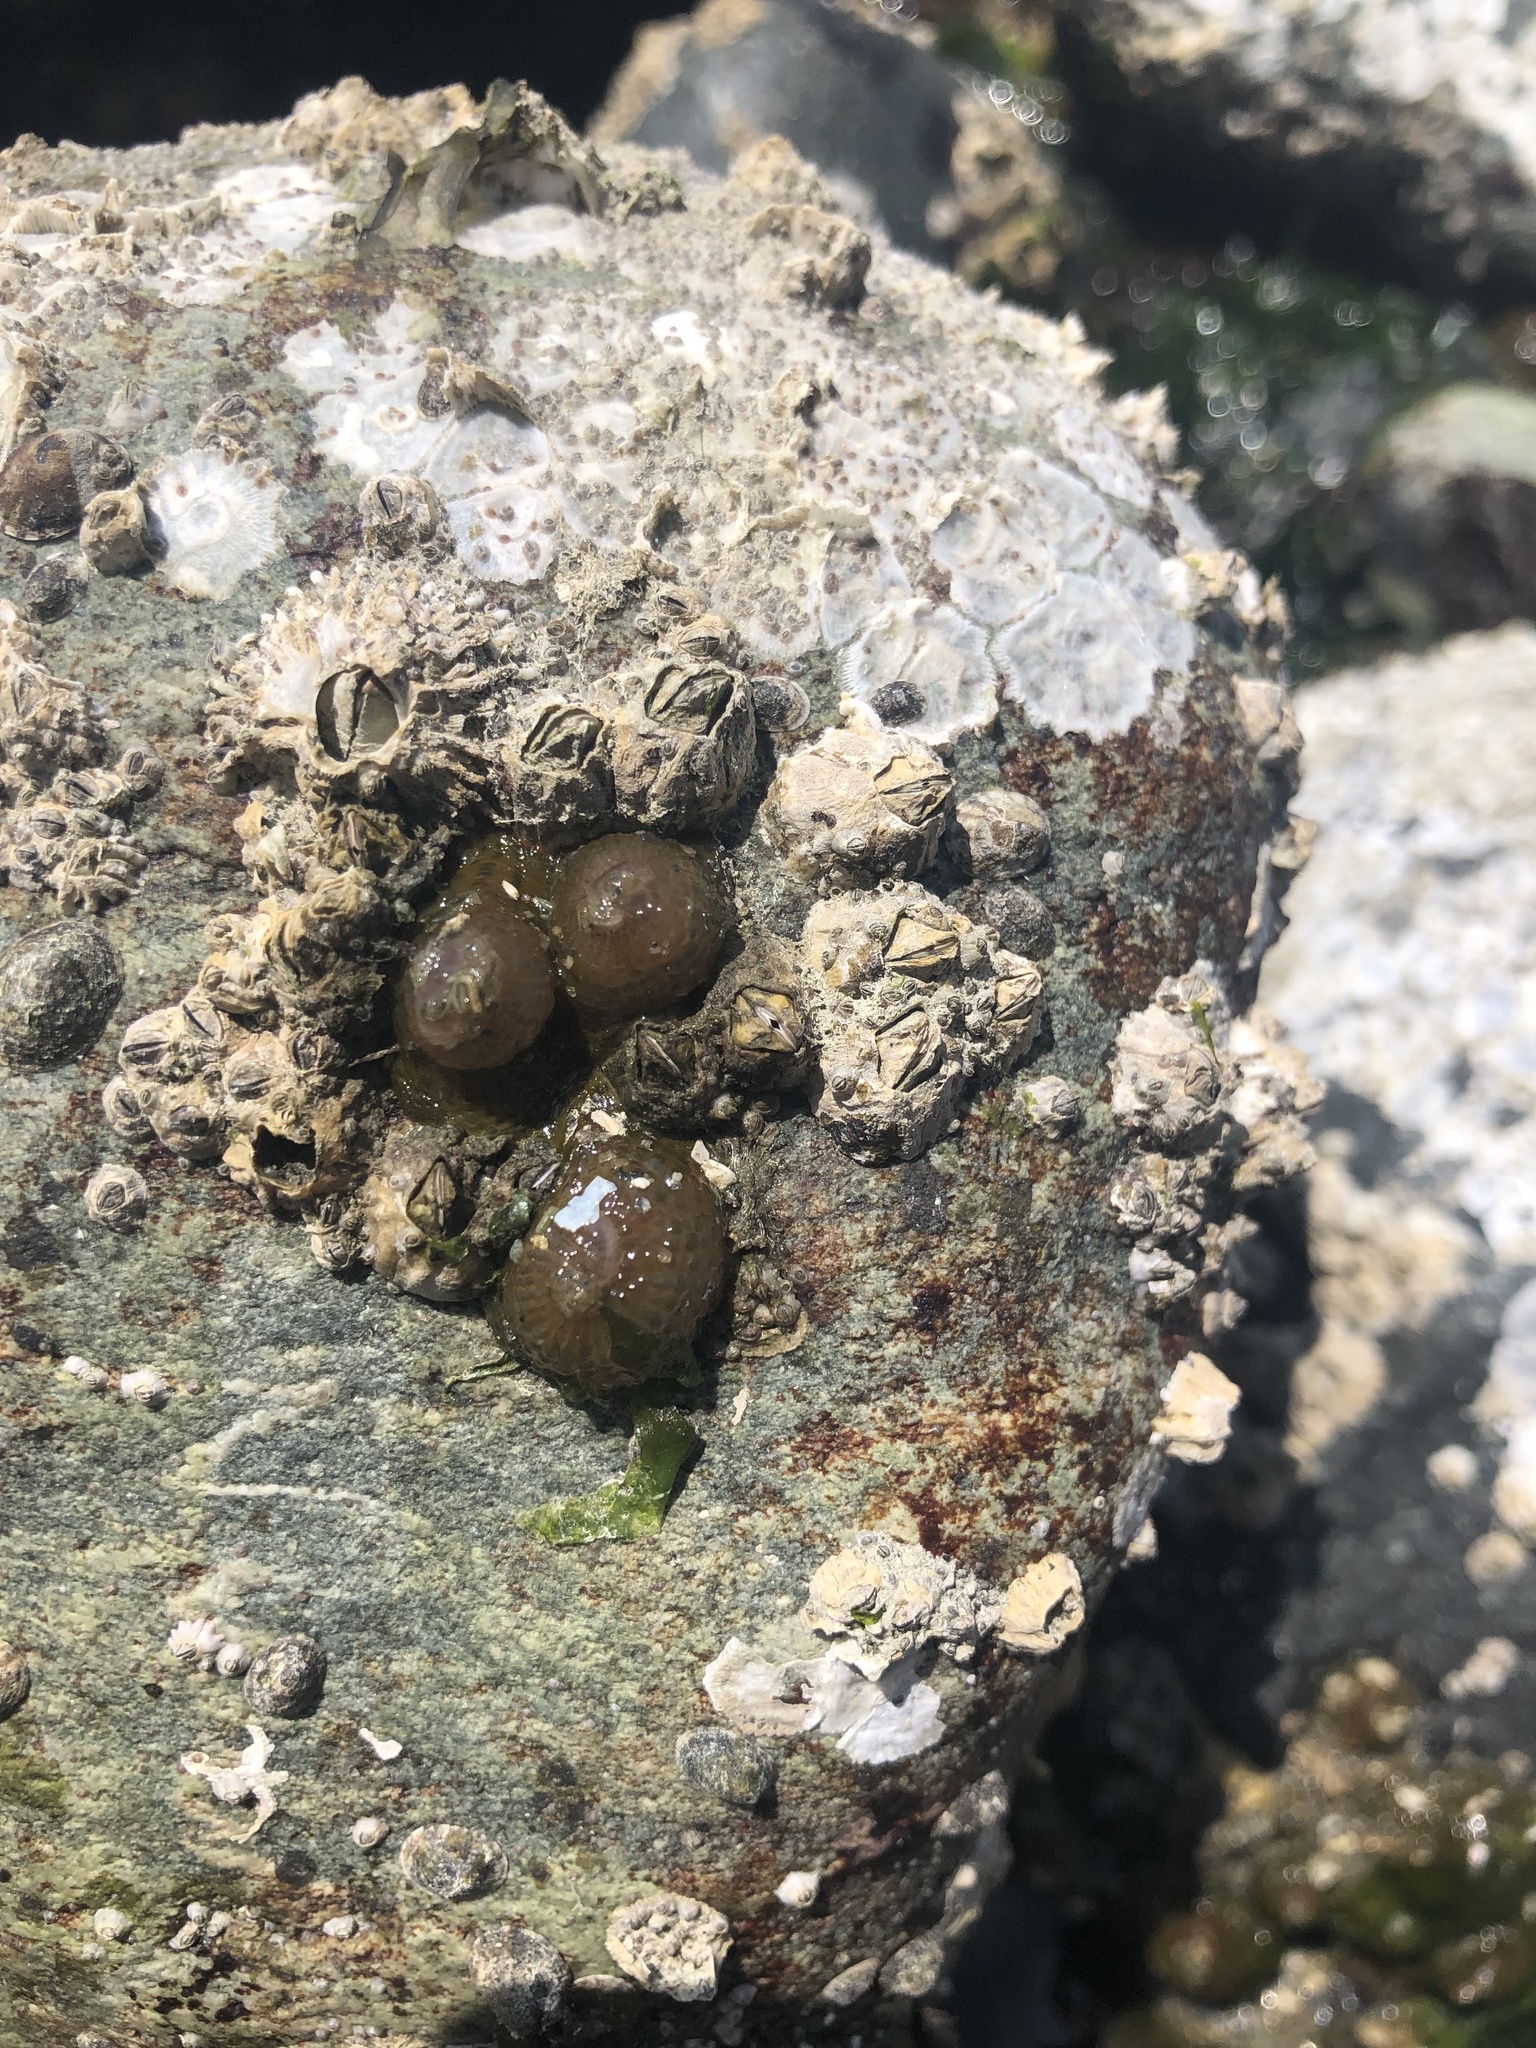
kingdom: Animalia
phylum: Arthropoda
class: Maxillopoda
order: Sessilia
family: Archaeobalanidae
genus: Semibalanus
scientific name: Semibalanus cariosus
